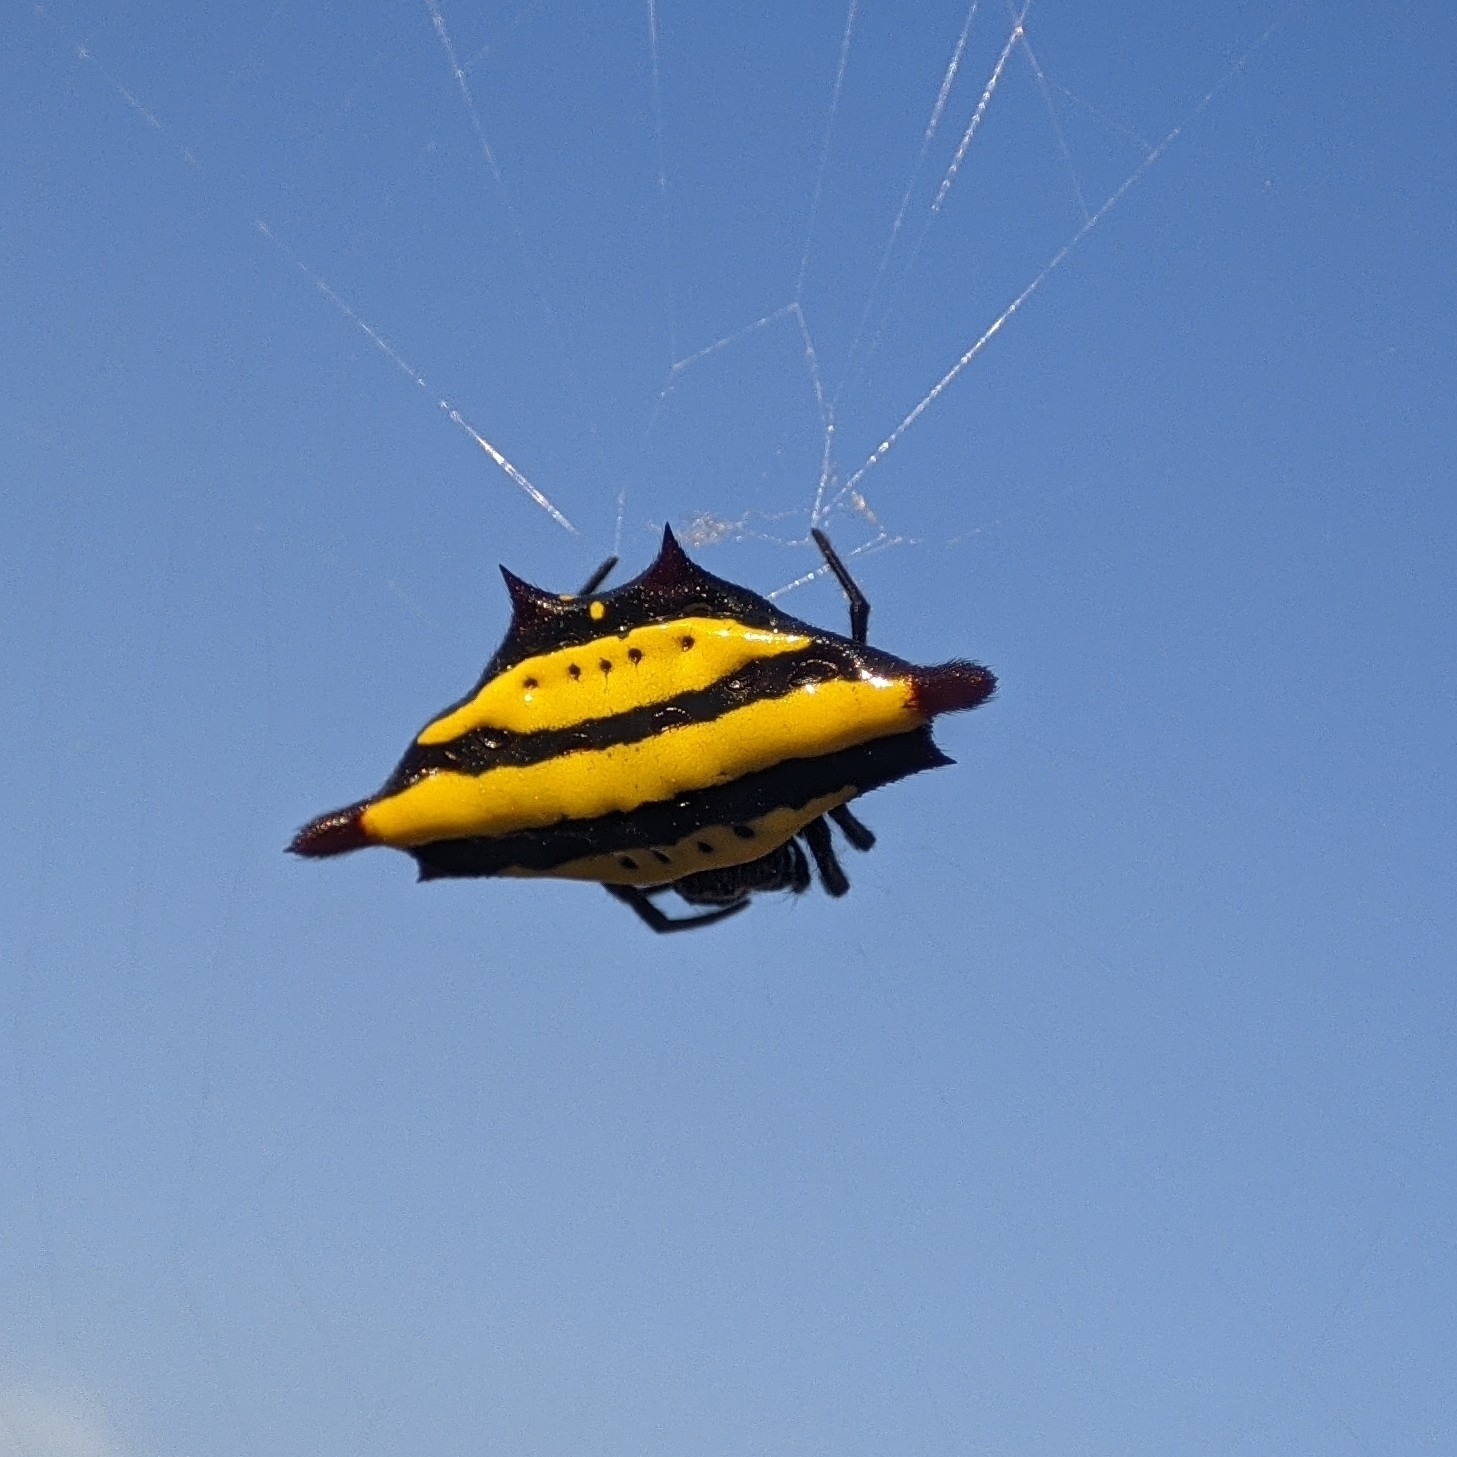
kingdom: Animalia
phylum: Arthropoda
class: Arachnida
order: Araneae
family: Araneidae
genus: Gasteracantha
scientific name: Gasteracantha diadesmia
